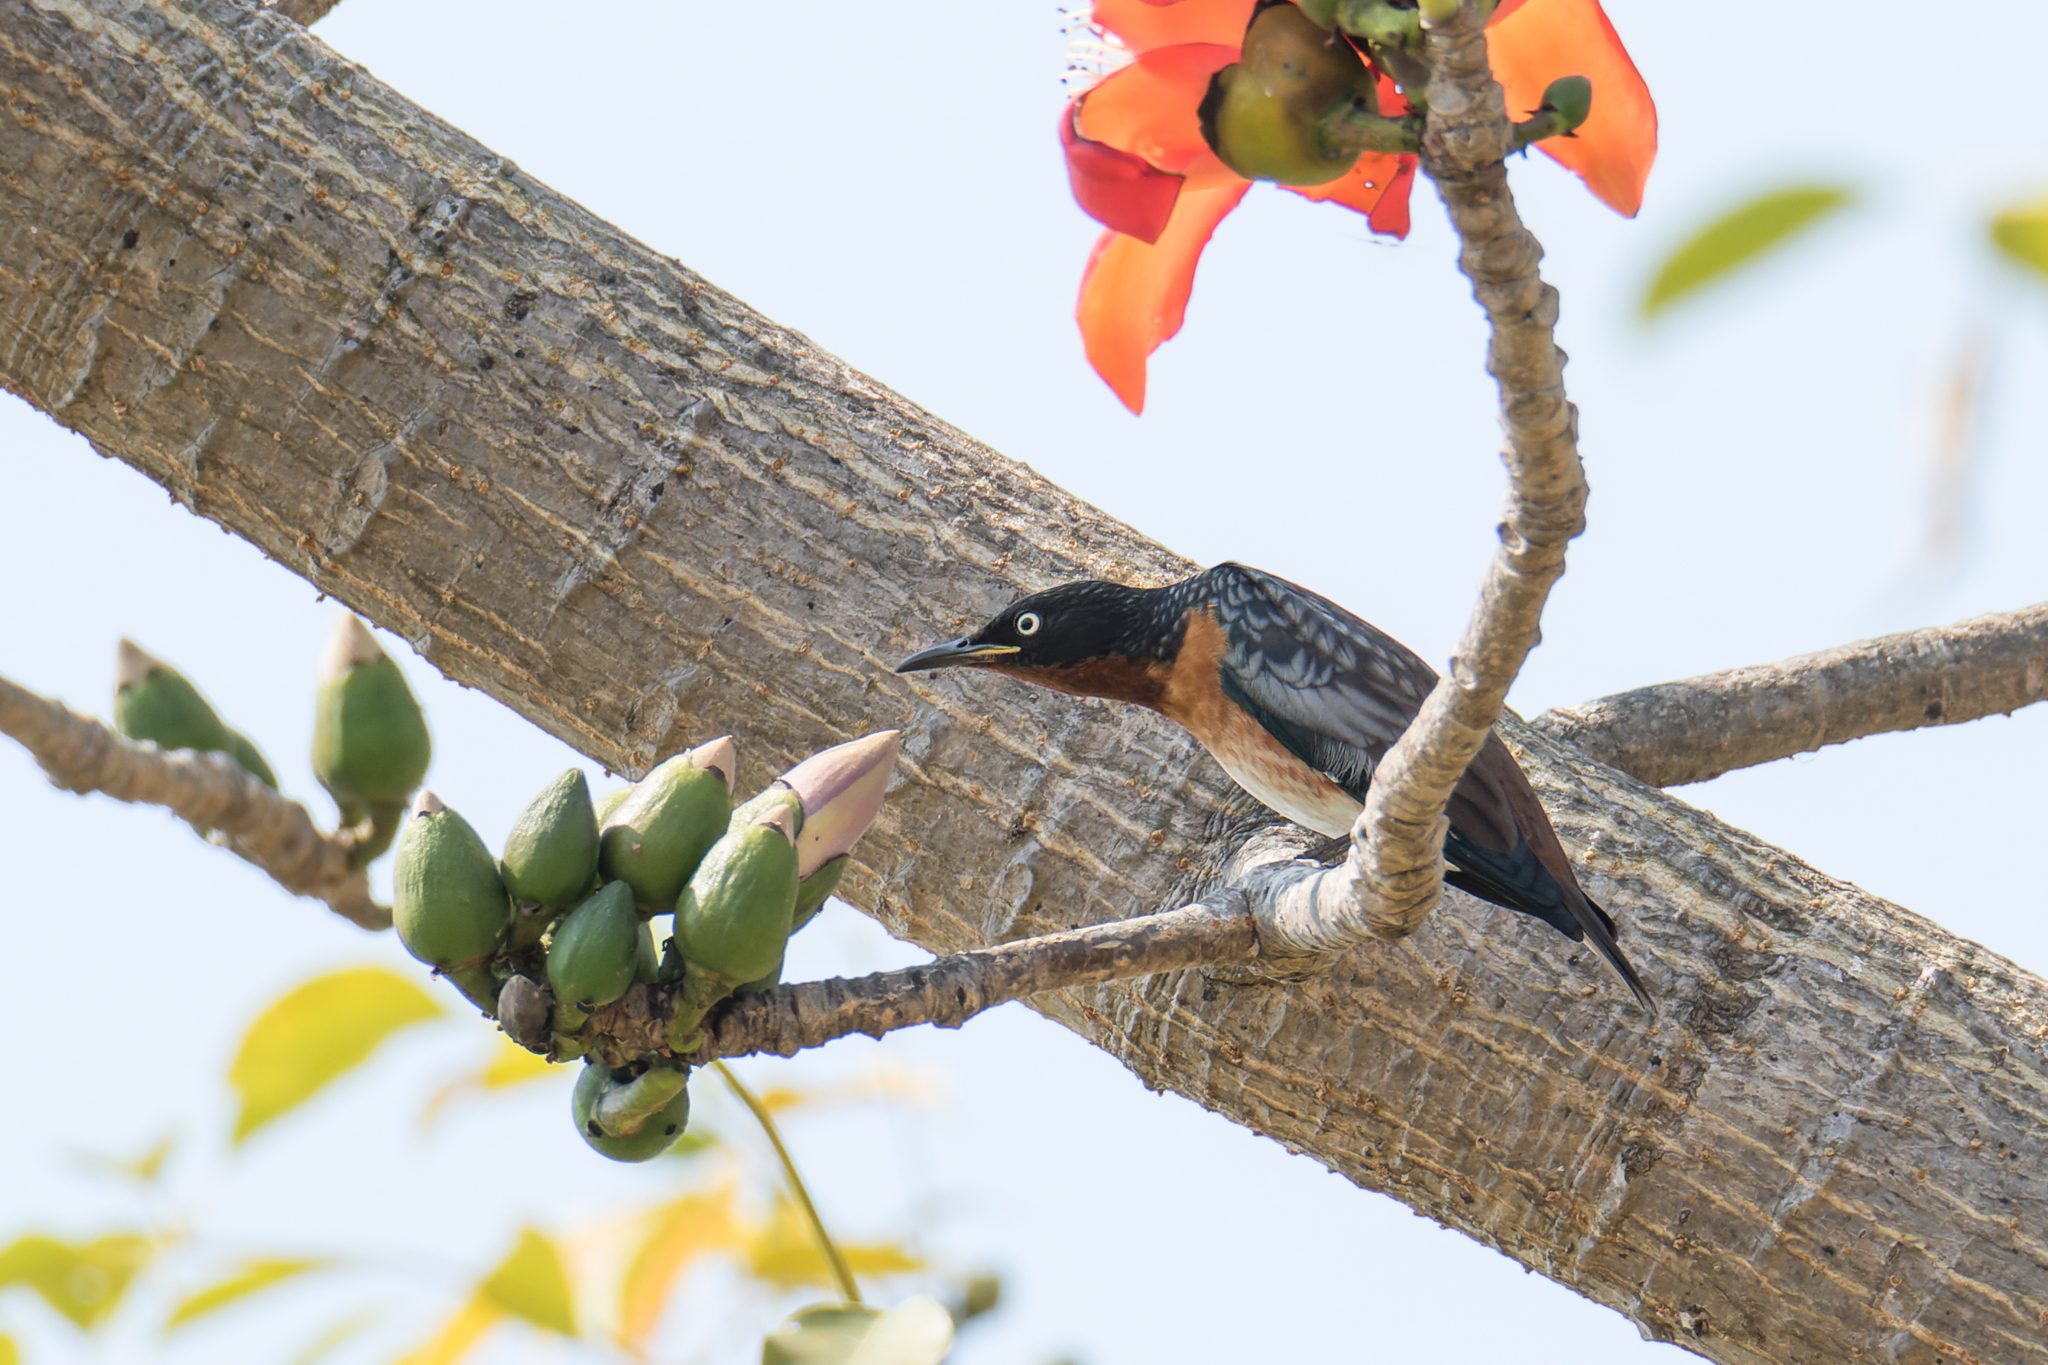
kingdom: Animalia
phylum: Chordata
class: Aves
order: Passeriformes
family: Sturnidae
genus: Saroglossa
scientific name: Saroglossa spiloptera
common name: Spot-winged starling
